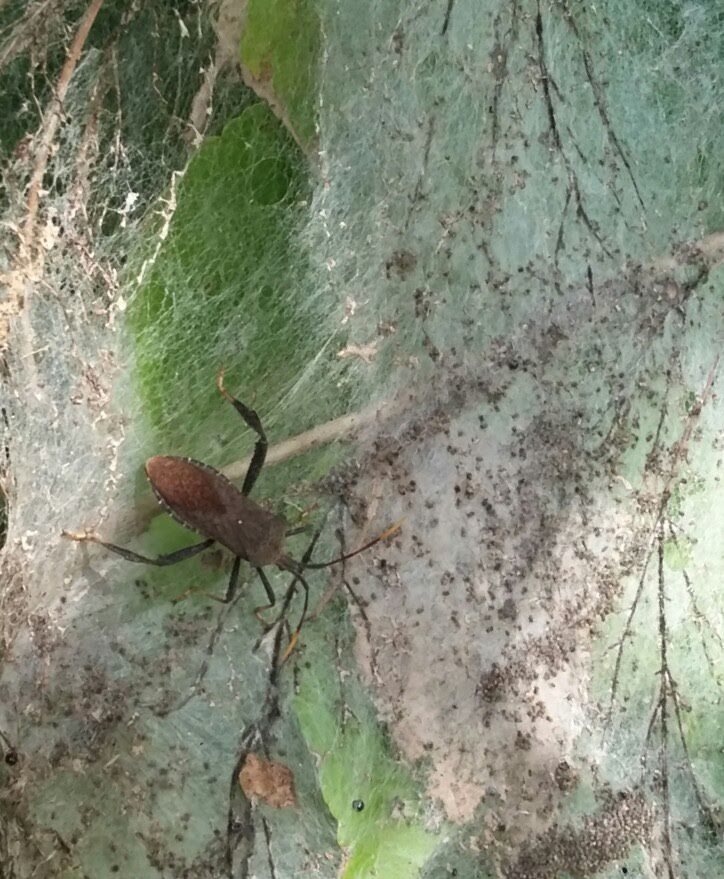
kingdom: Animalia
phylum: Arthropoda
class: Insecta
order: Hemiptera
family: Coreidae
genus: Acanthocephala
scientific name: Acanthocephala terminalis
